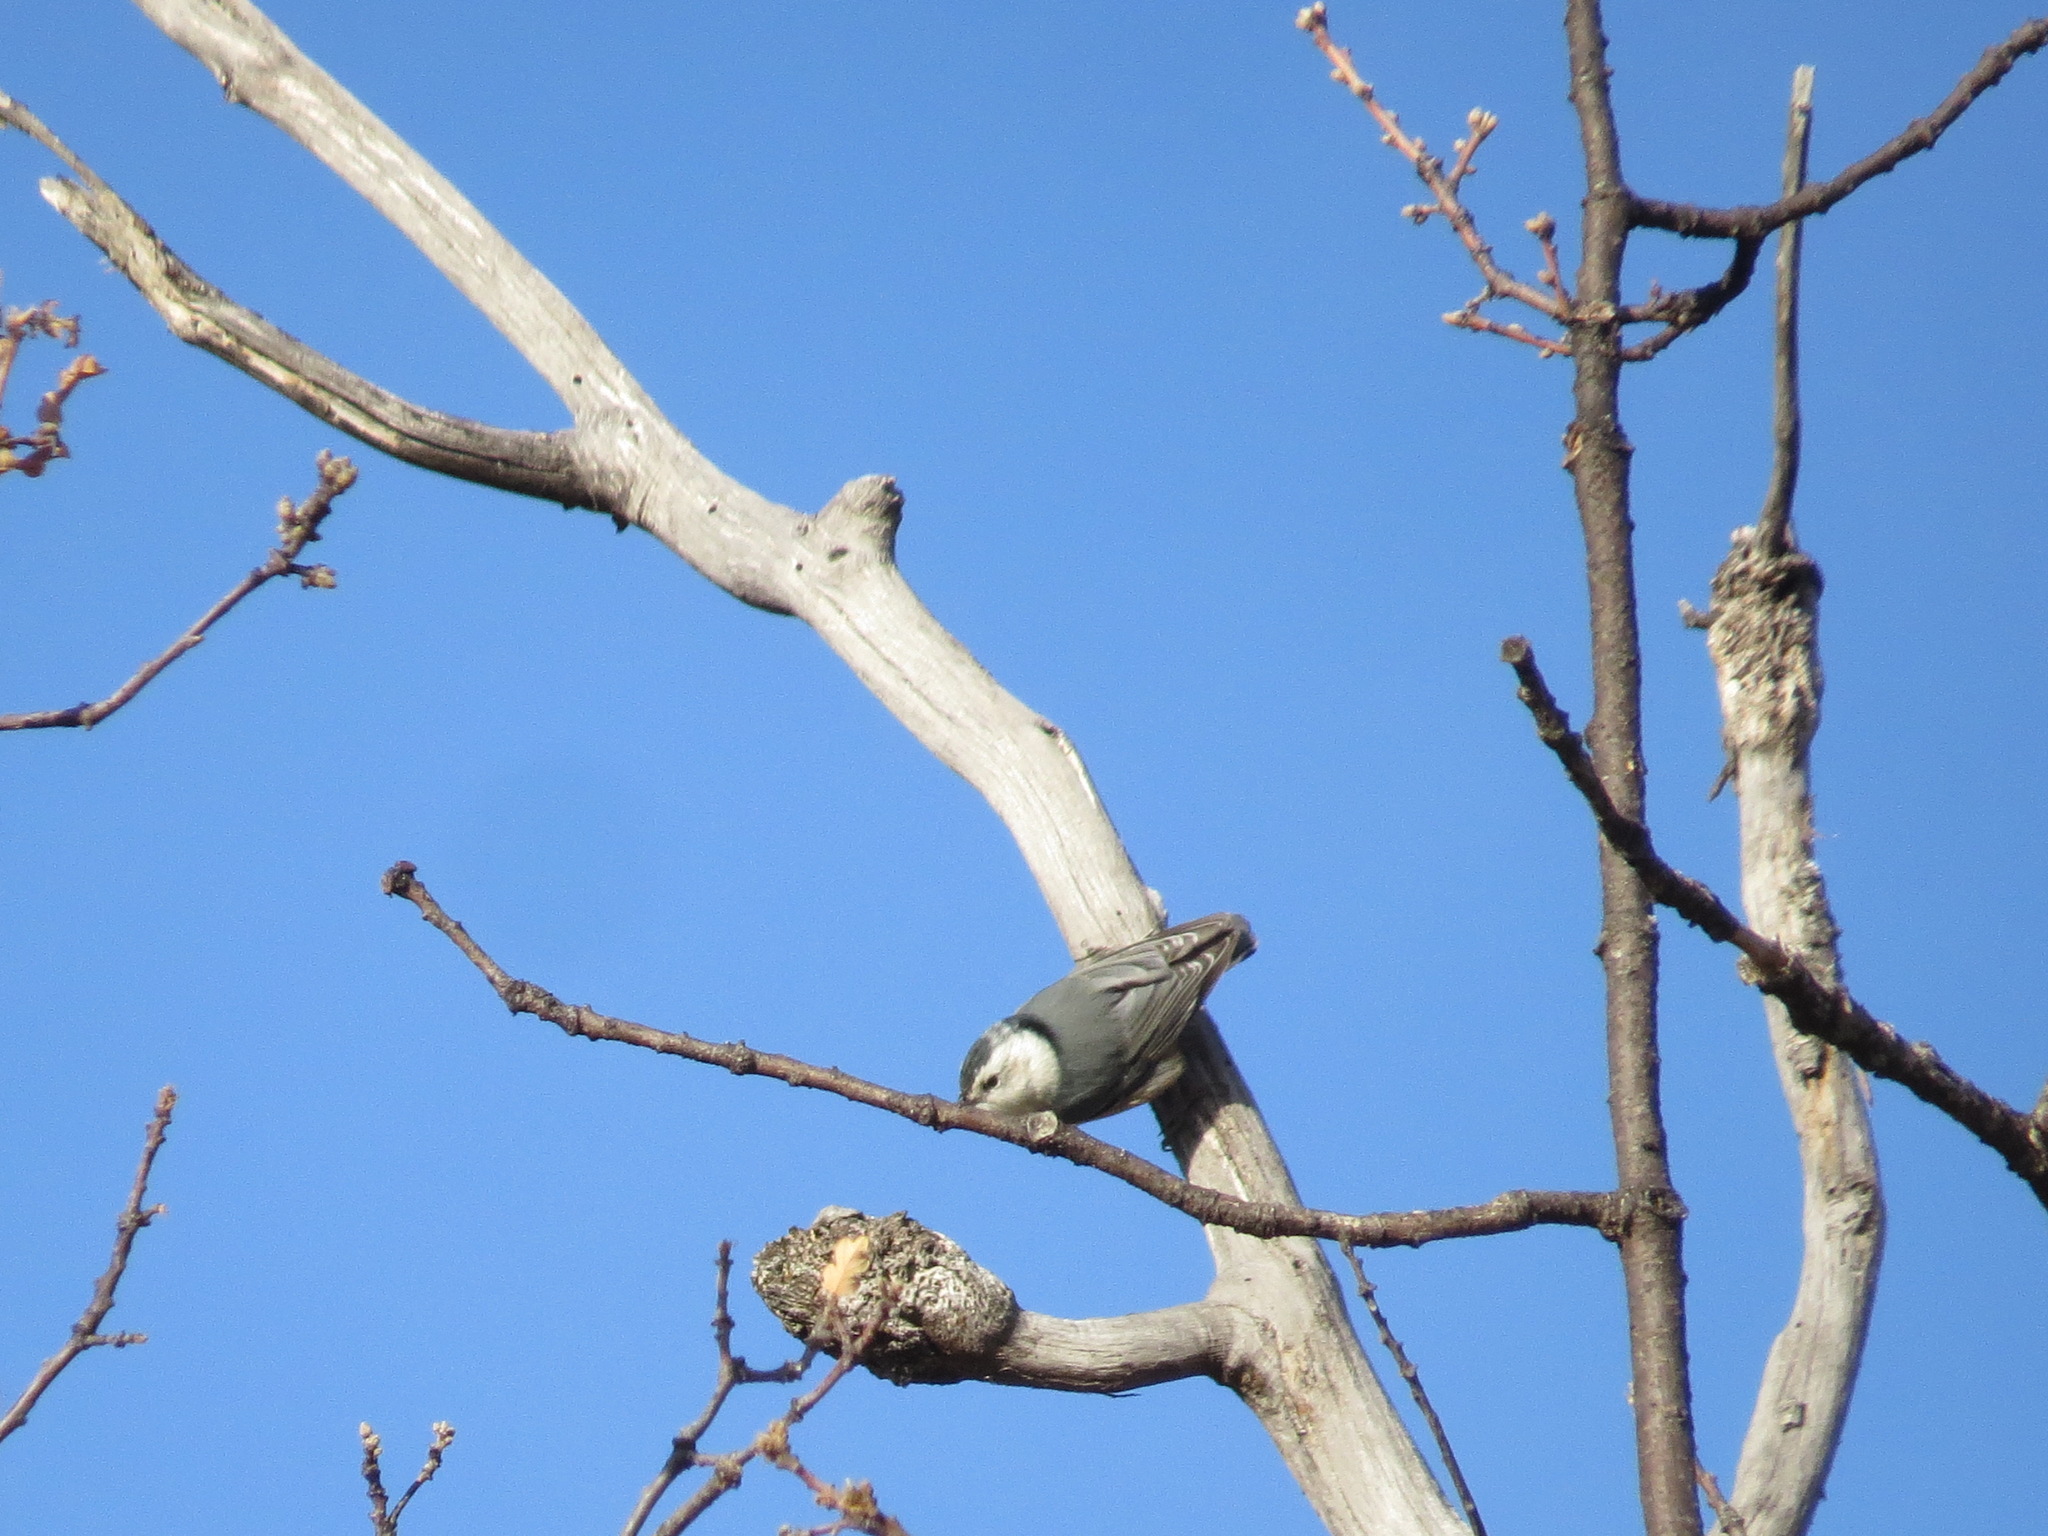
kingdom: Animalia
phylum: Chordata
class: Aves
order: Passeriformes
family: Sittidae
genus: Sitta
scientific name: Sitta carolinensis
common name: White-breasted nuthatch
